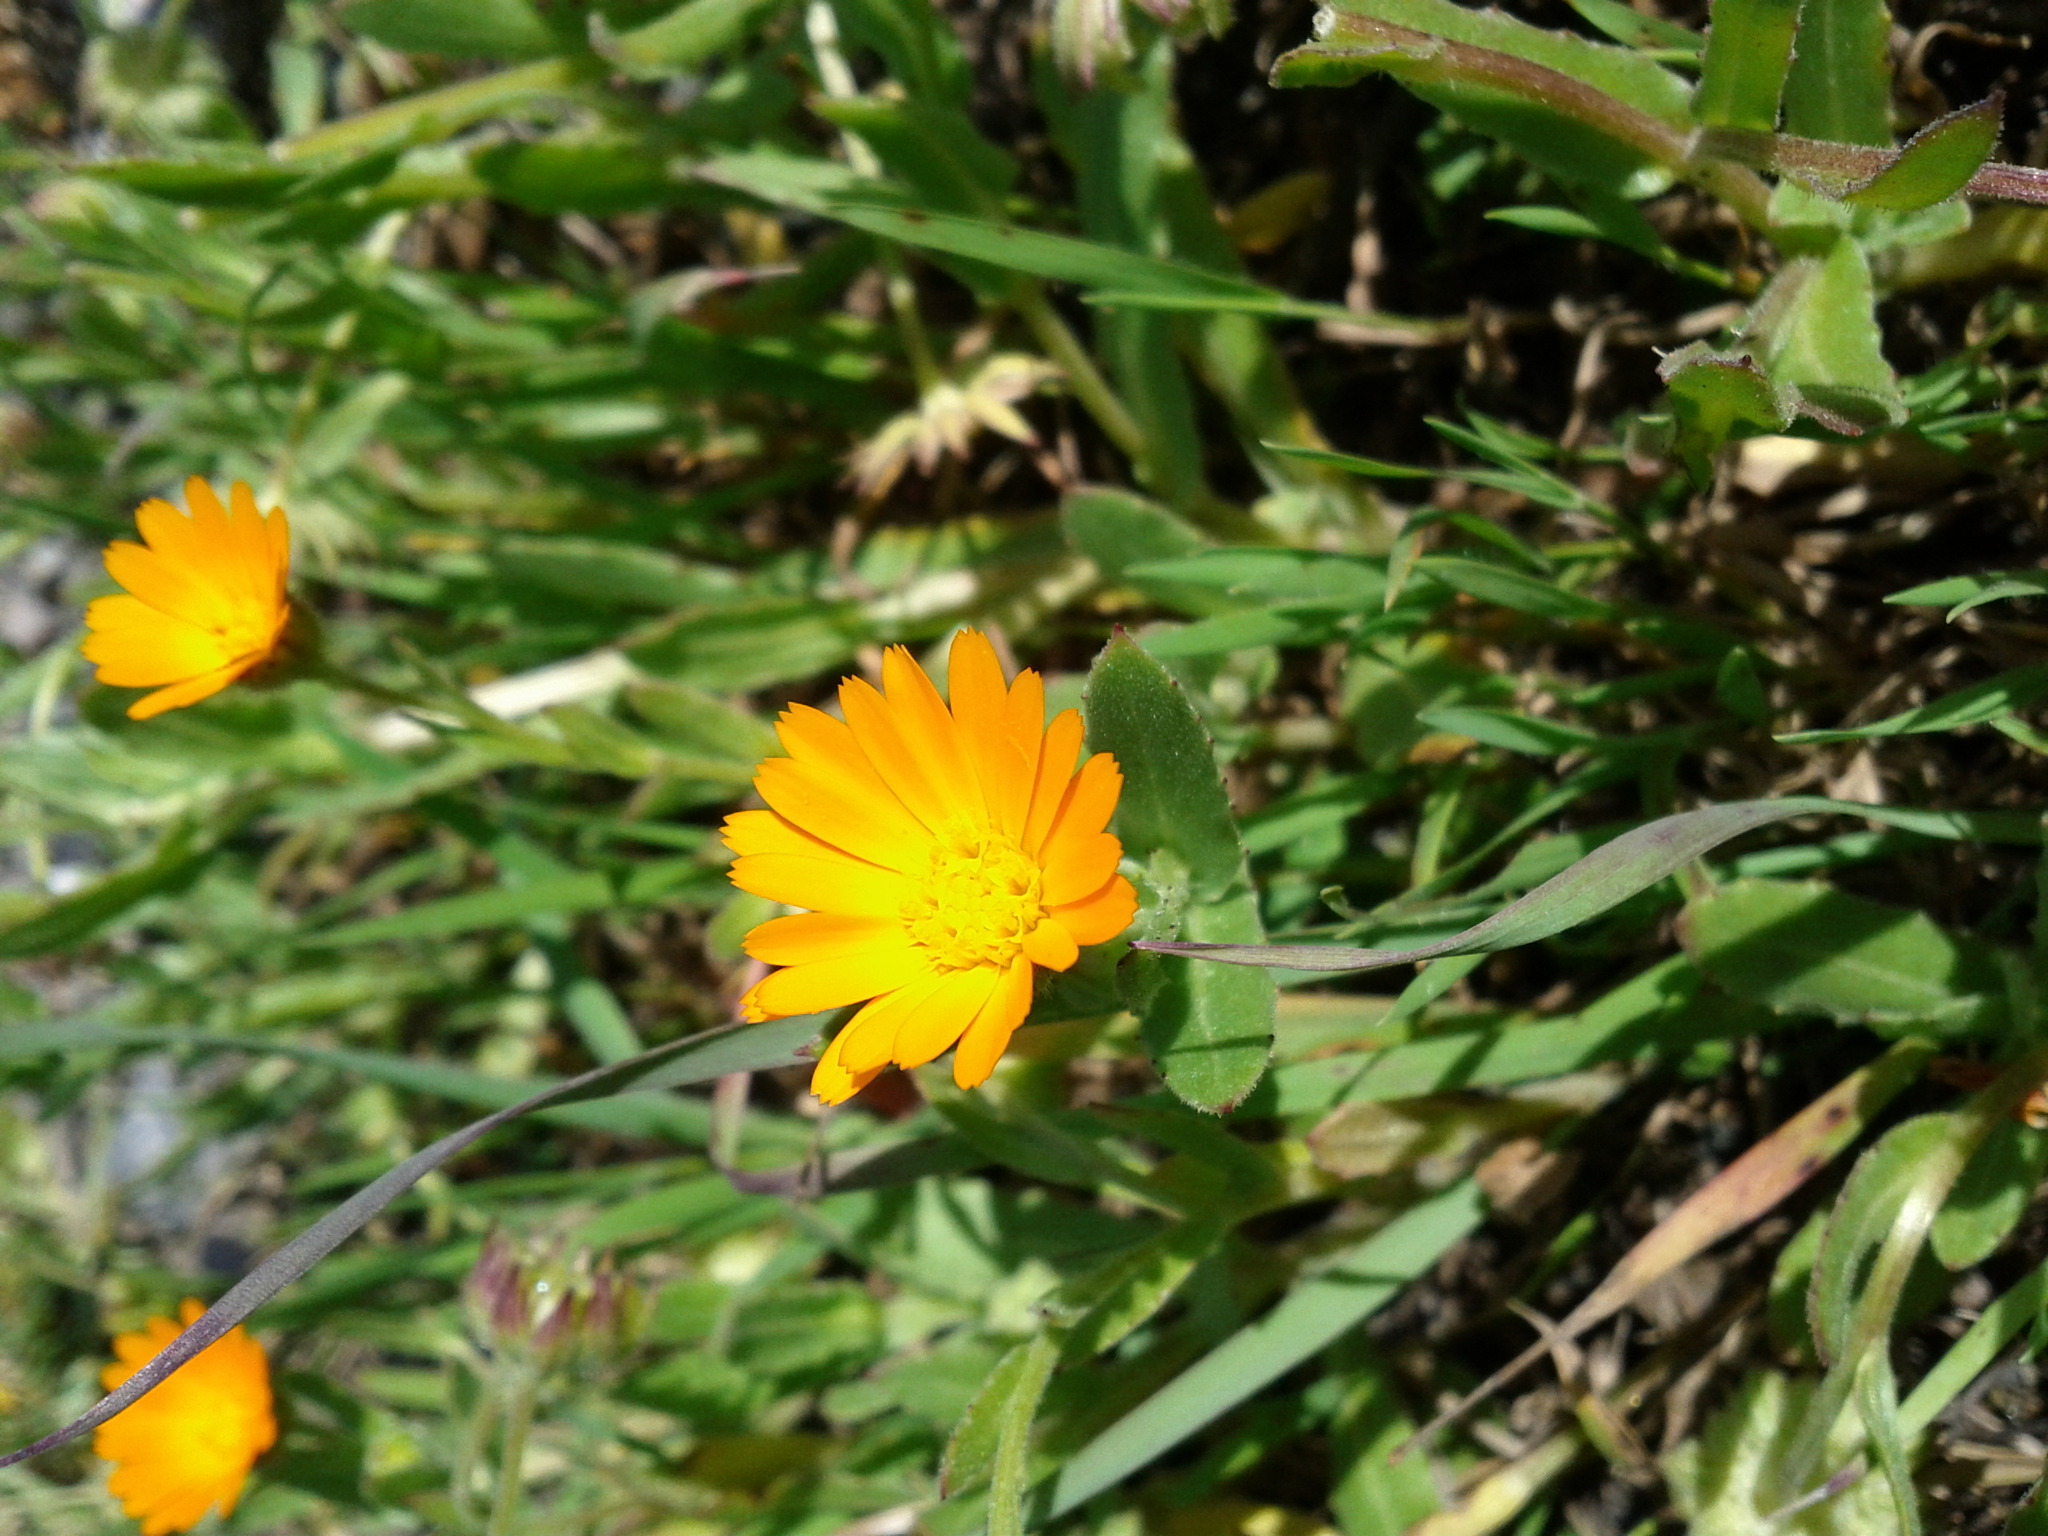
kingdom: Plantae
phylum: Tracheophyta
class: Magnoliopsida
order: Asterales
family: Asteraceae
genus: Calendula
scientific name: Calendula arvensis
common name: Field marigold
